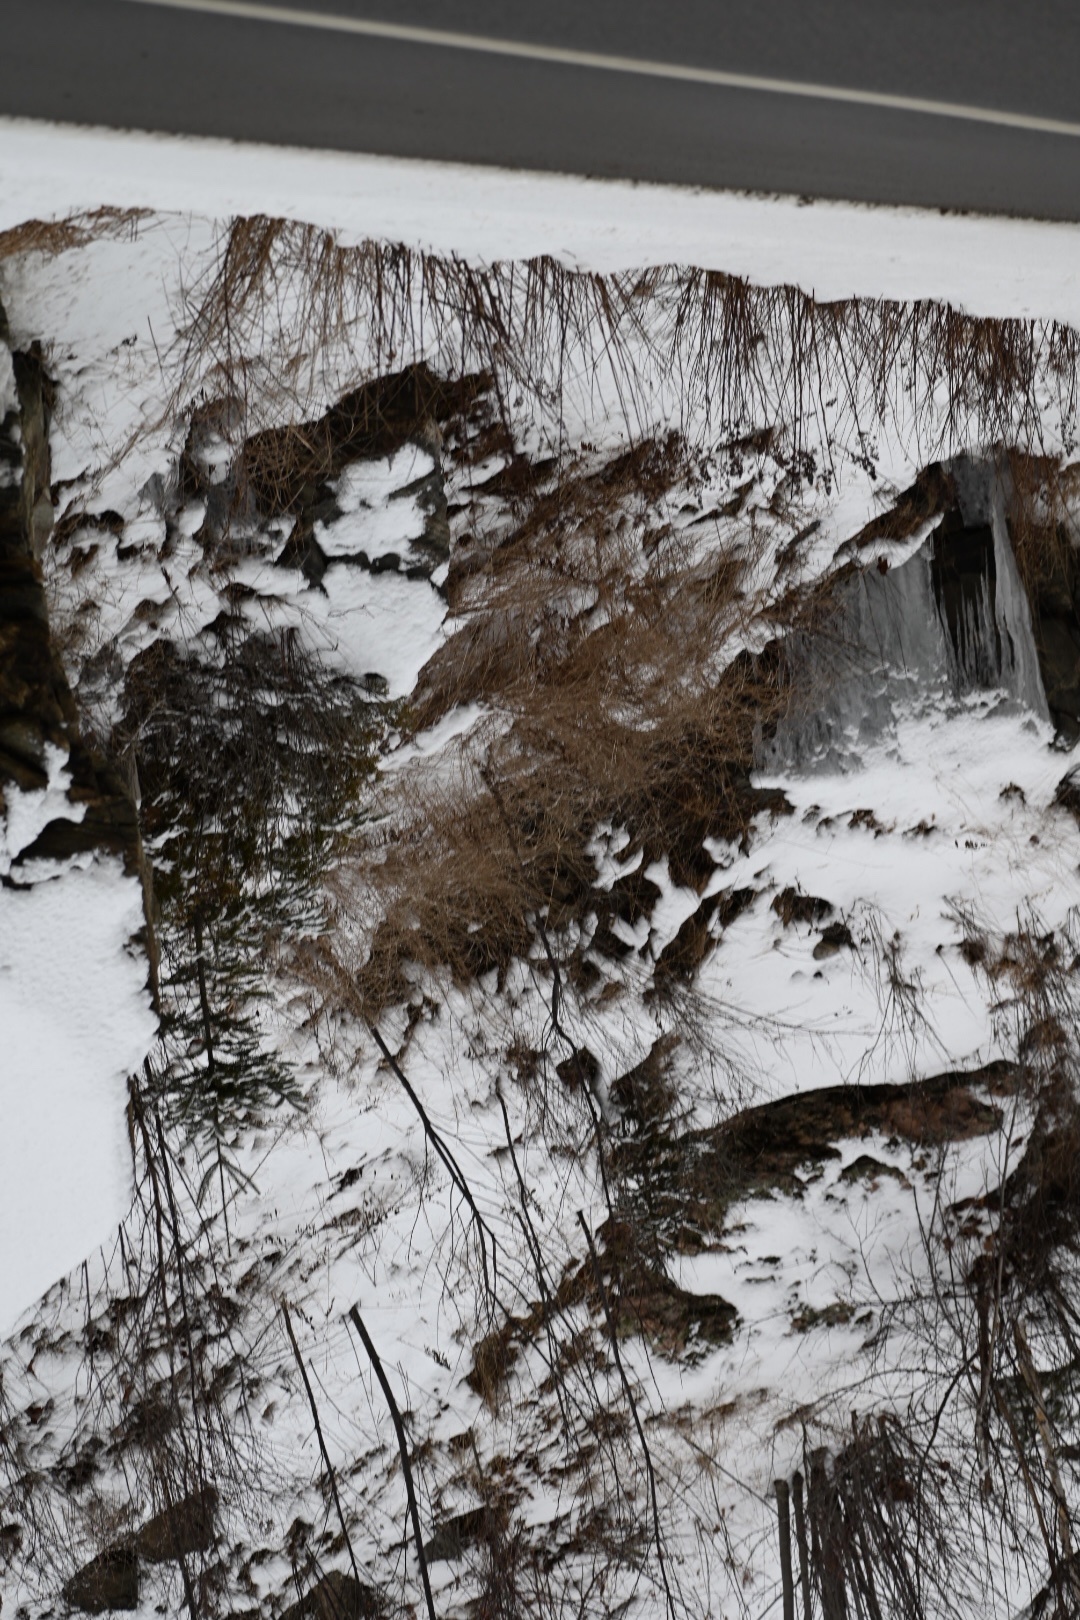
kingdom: Animalia
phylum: Chordata
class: Aves
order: Strigiformes
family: Strigidae
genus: Strix
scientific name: Strix varia
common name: Barred owl
